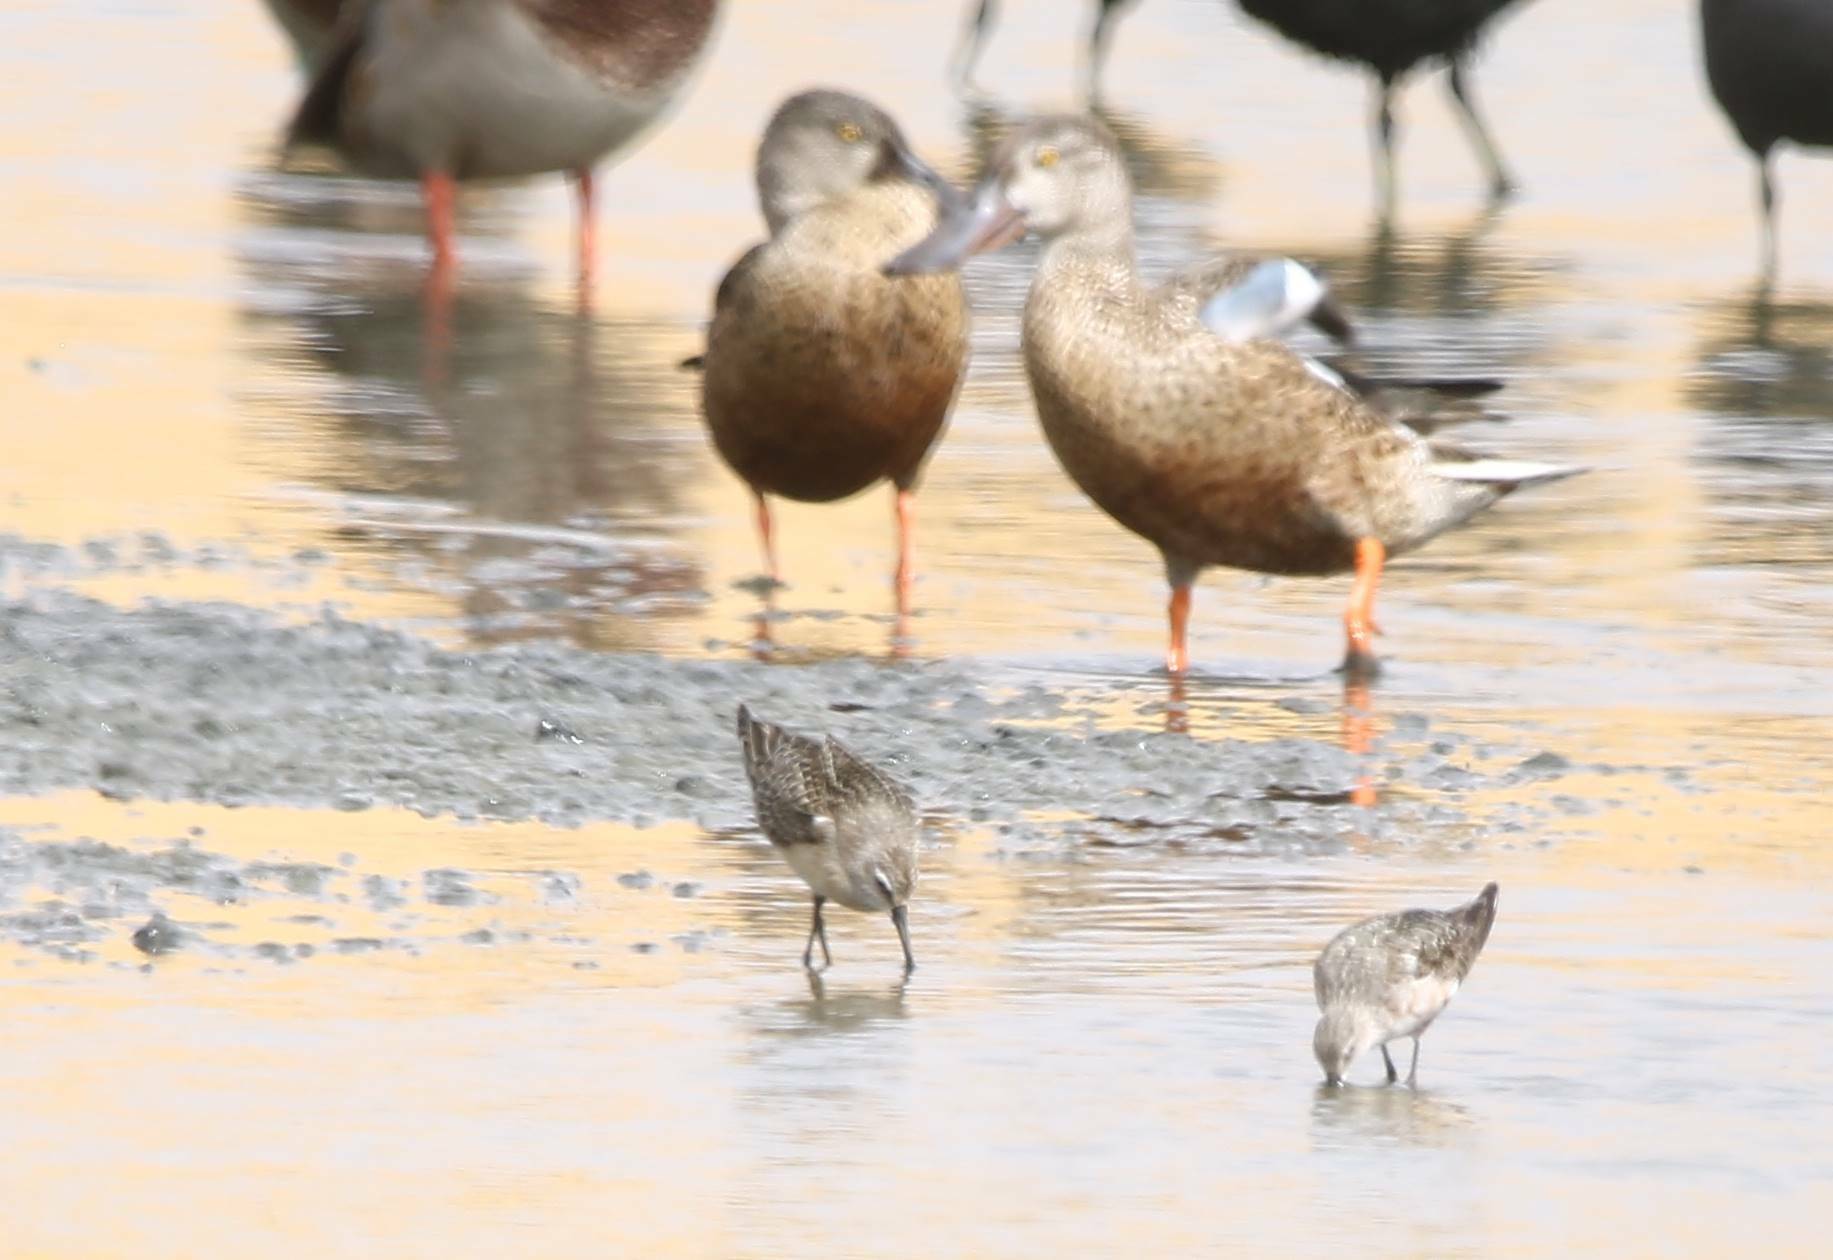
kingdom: Animalia
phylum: Chordata
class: Aves
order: Anseriformes
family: Anatidae
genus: Spatula
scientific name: Spatula clypeata
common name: Northern shoveler
